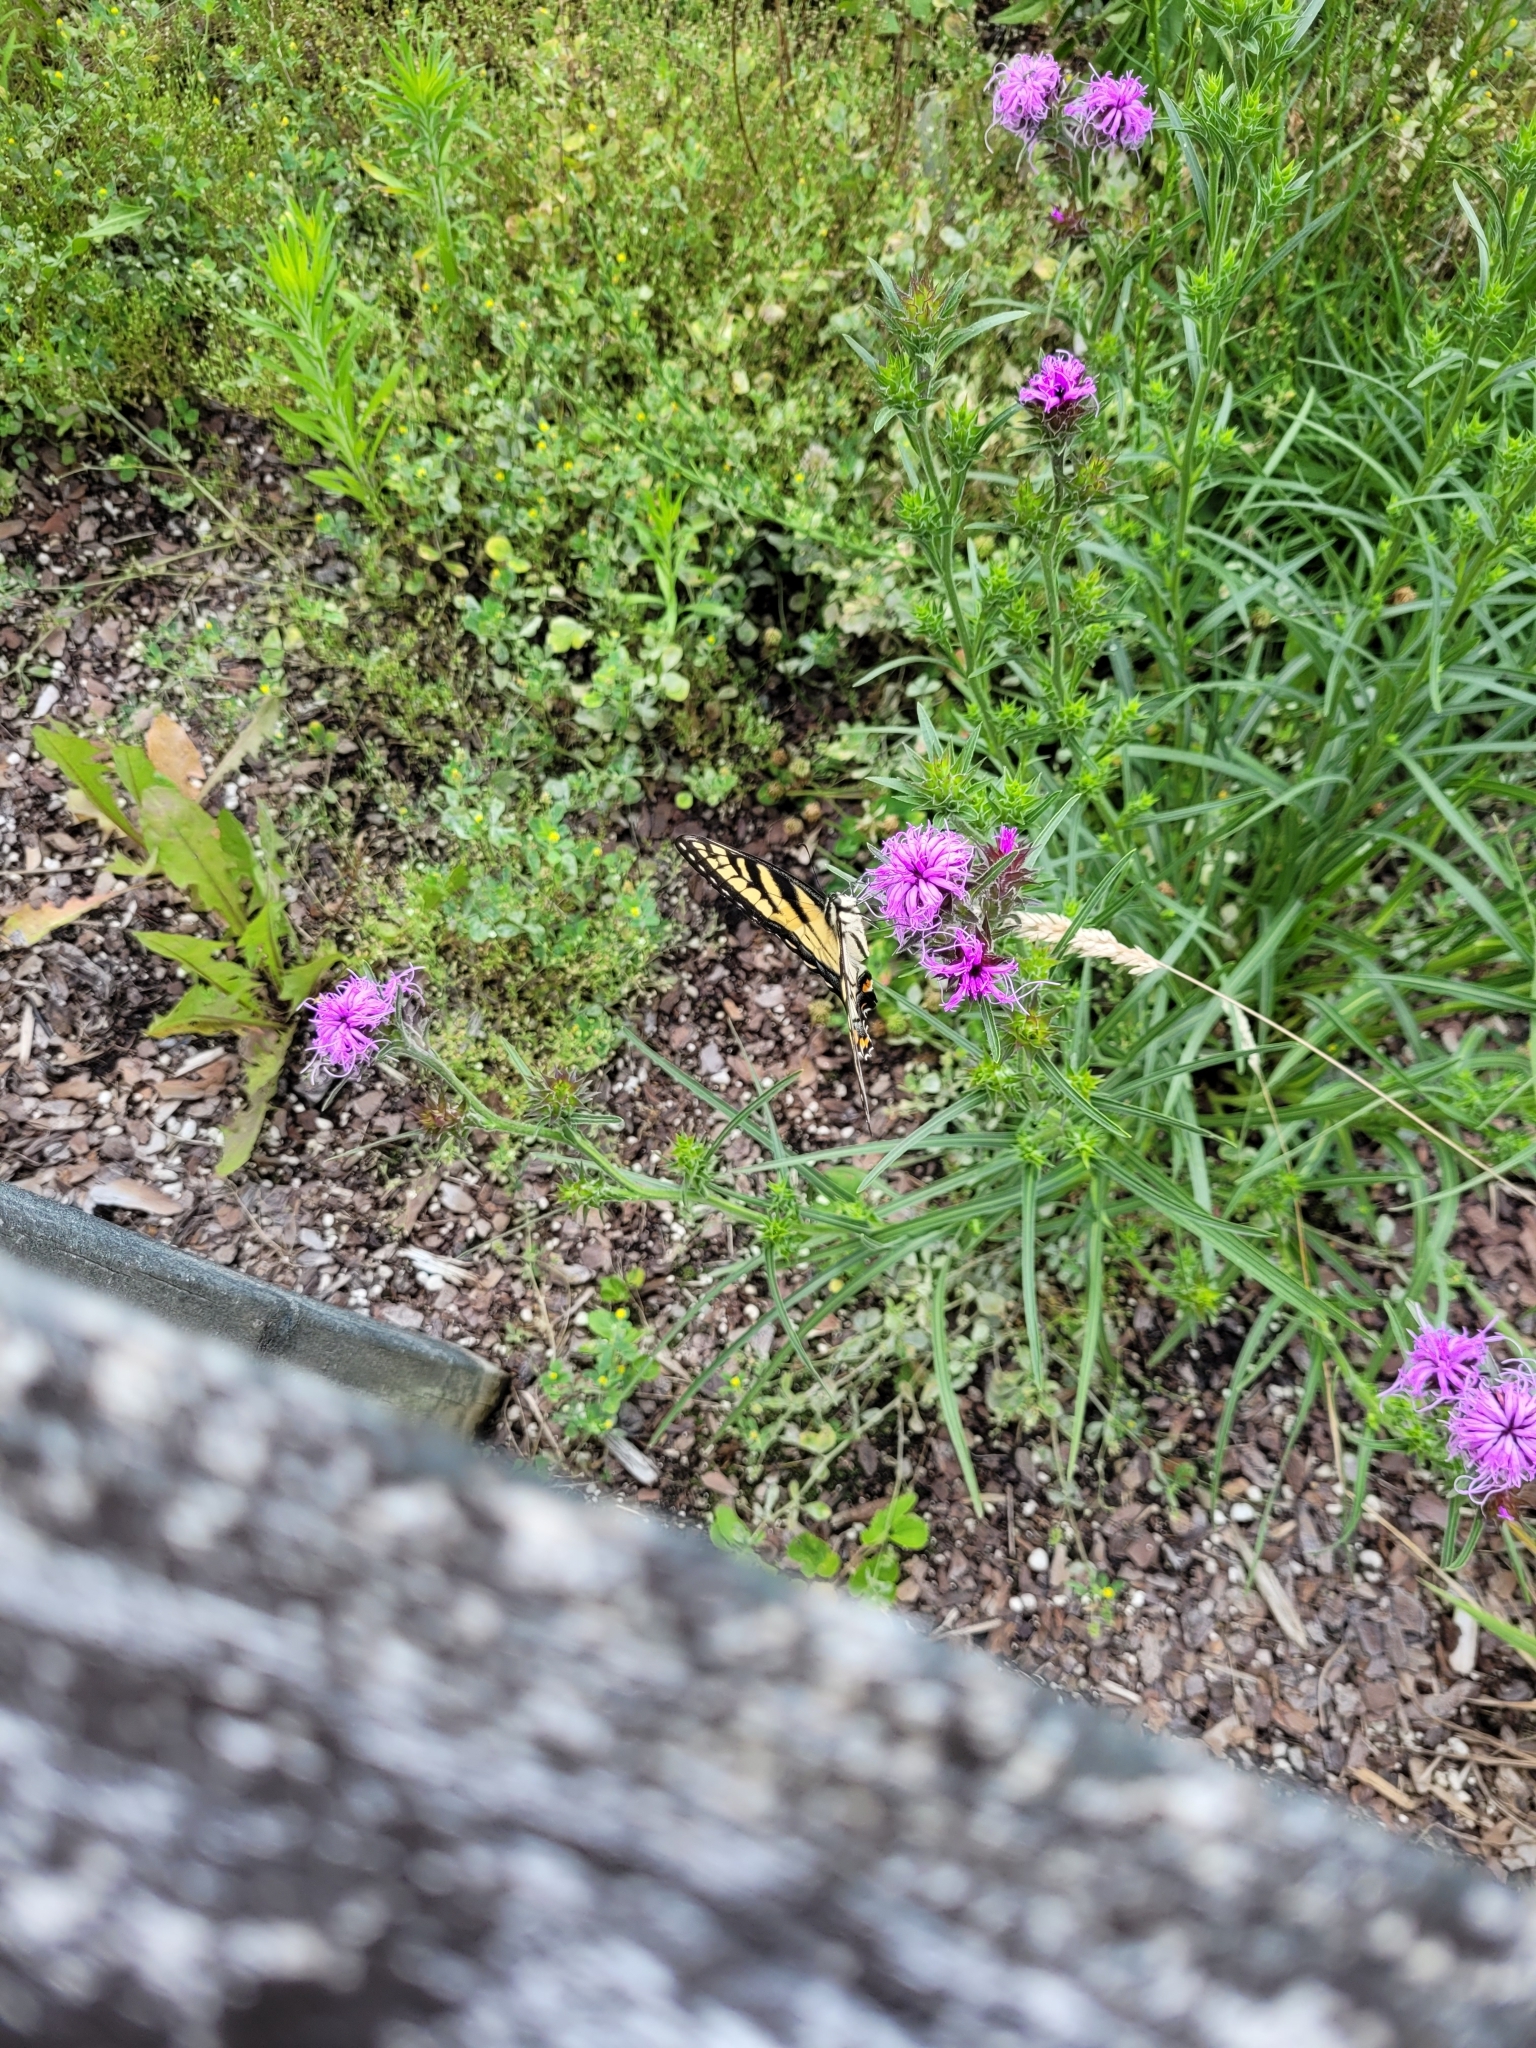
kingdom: Animalia
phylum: Arthropoda
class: Insecta
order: Lepidoptera
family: Papilionidae
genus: Papilio
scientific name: Papilio glaucus
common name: Tiger swallowtail
